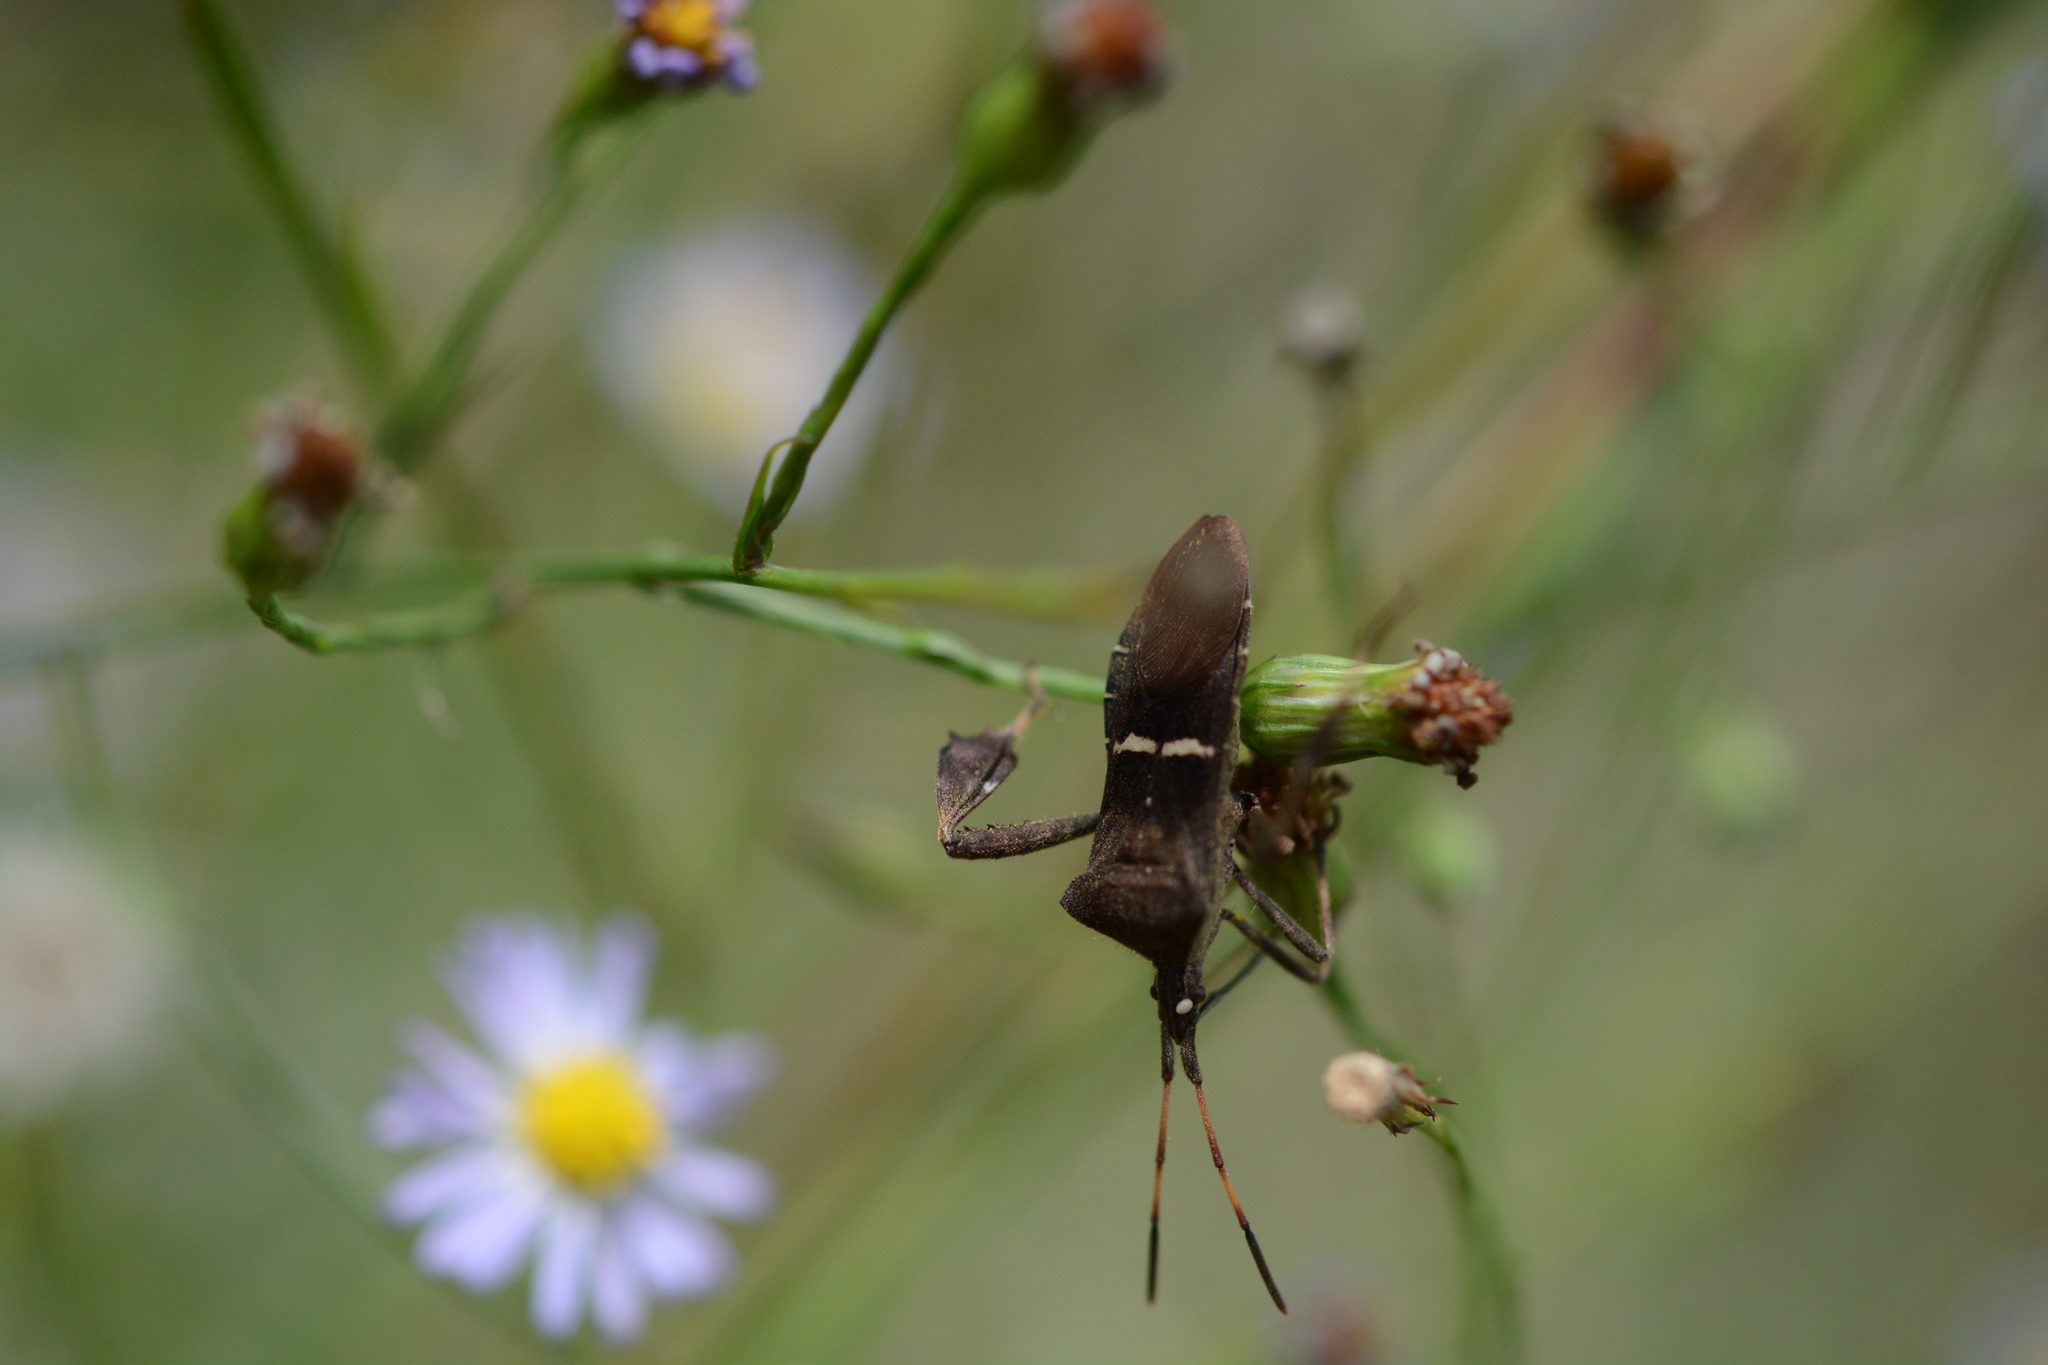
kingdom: Animalia
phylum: Arthropoda
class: Insecta
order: Hemiptera
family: Coreidae
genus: Leptoglossus
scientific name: Leptoglossus phyllopus
